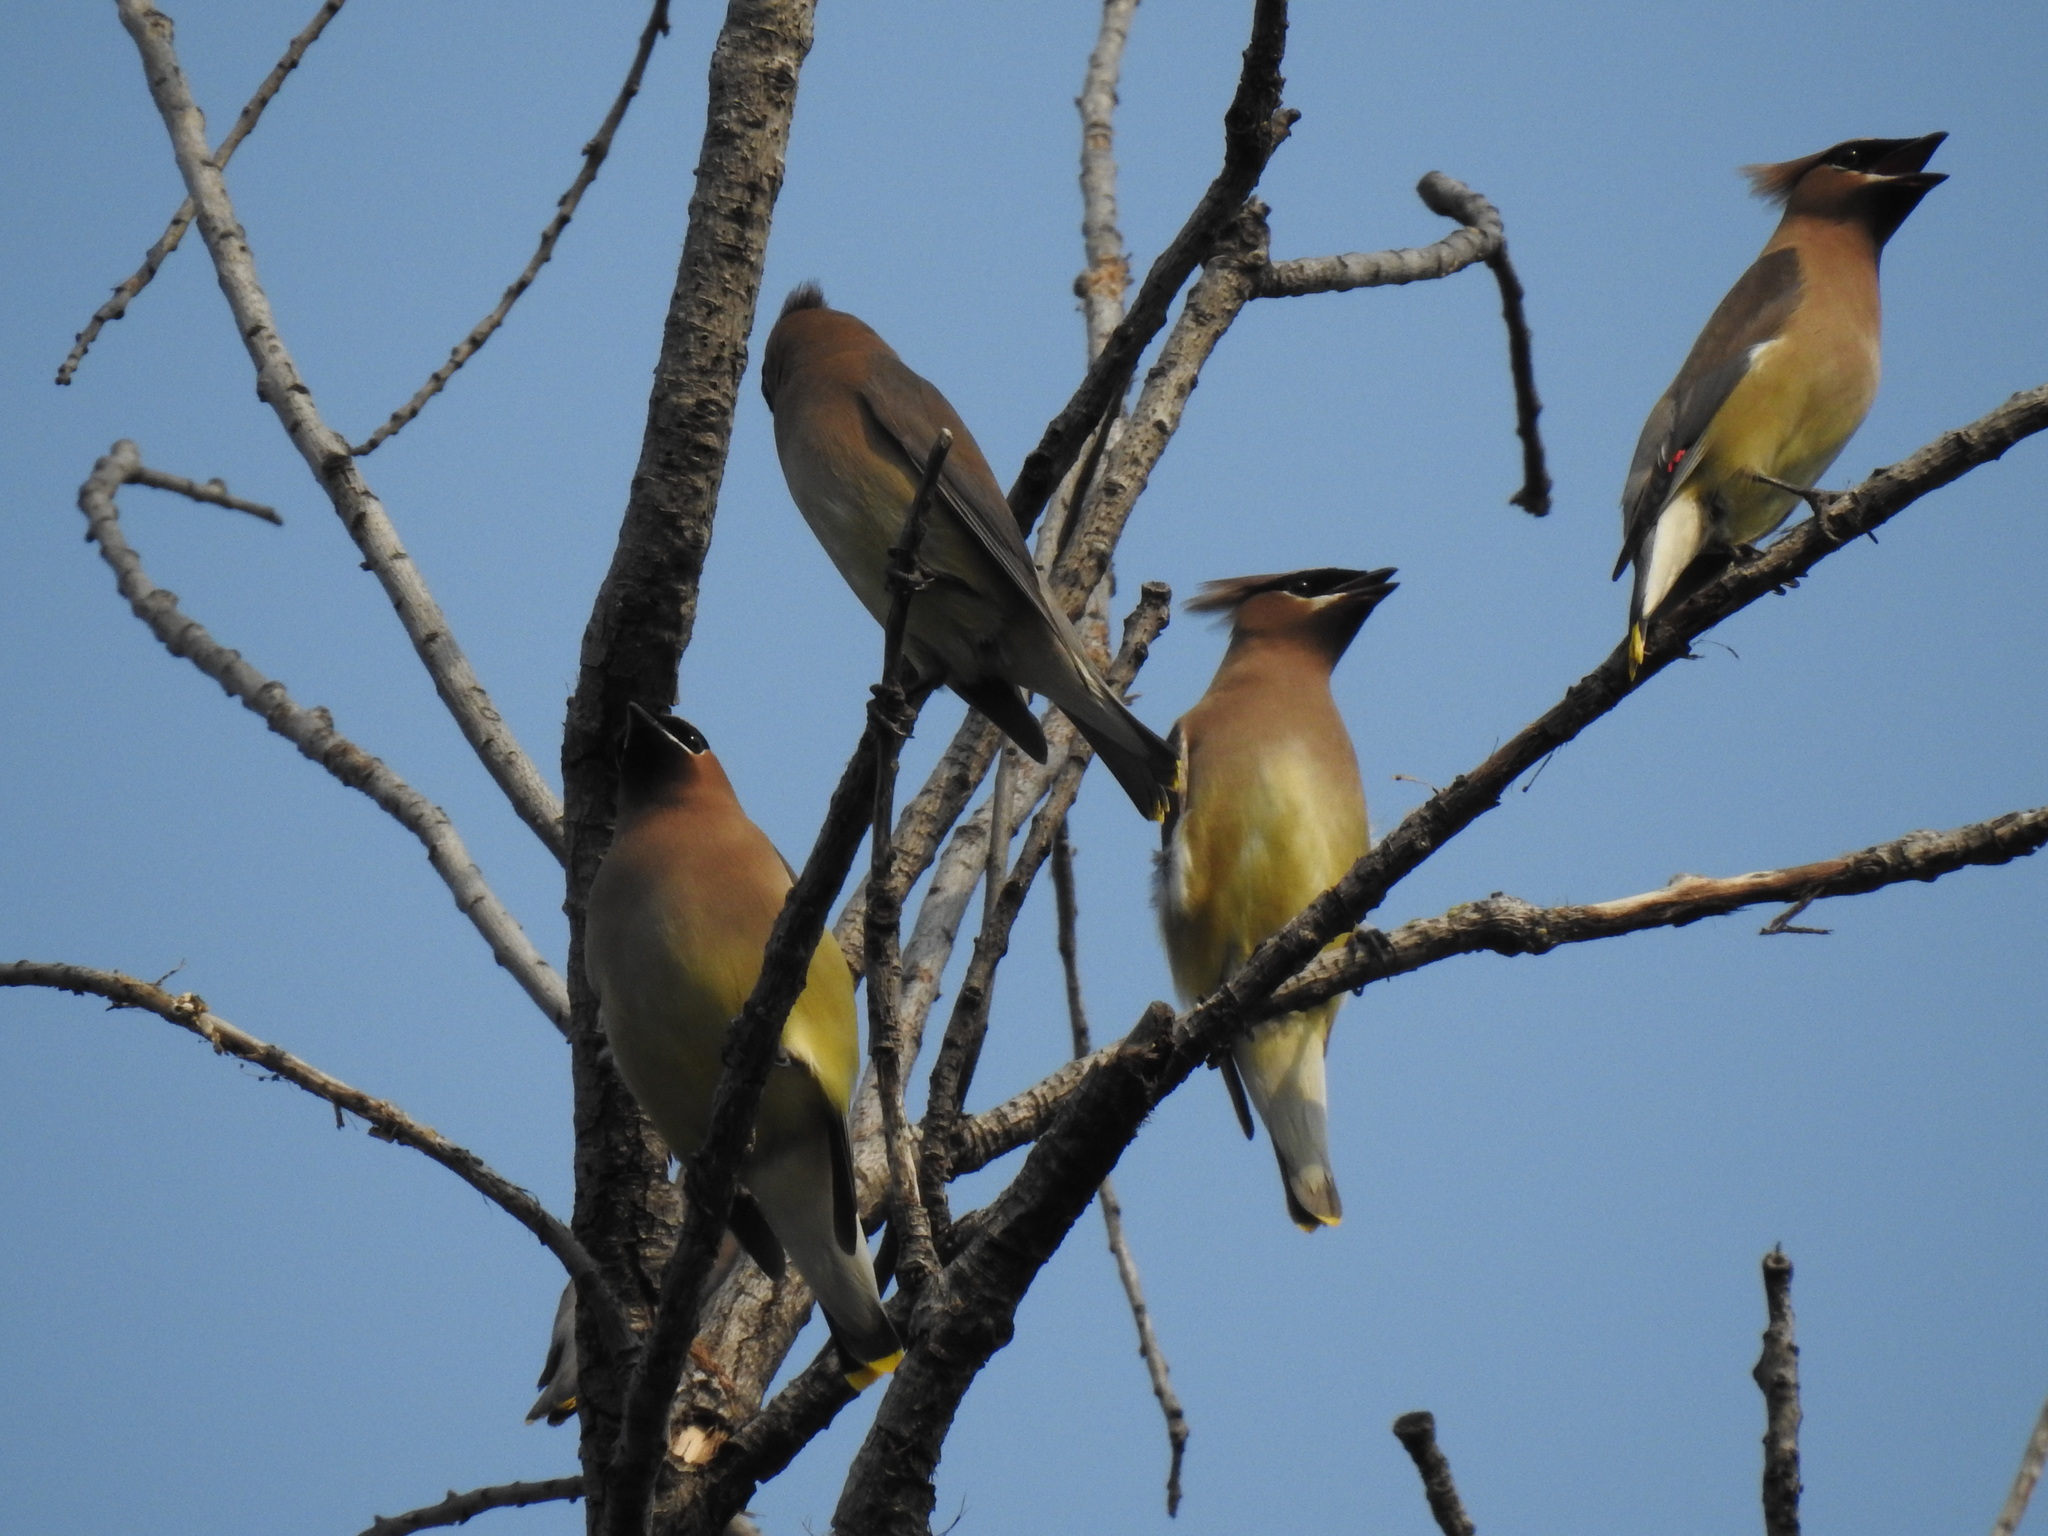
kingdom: Animalia
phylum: Chordata
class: Aves
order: Passeriformes
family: Bombycillidae
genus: Bombycilla
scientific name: Bombycilla cedrorum
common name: Cedar waxwing
